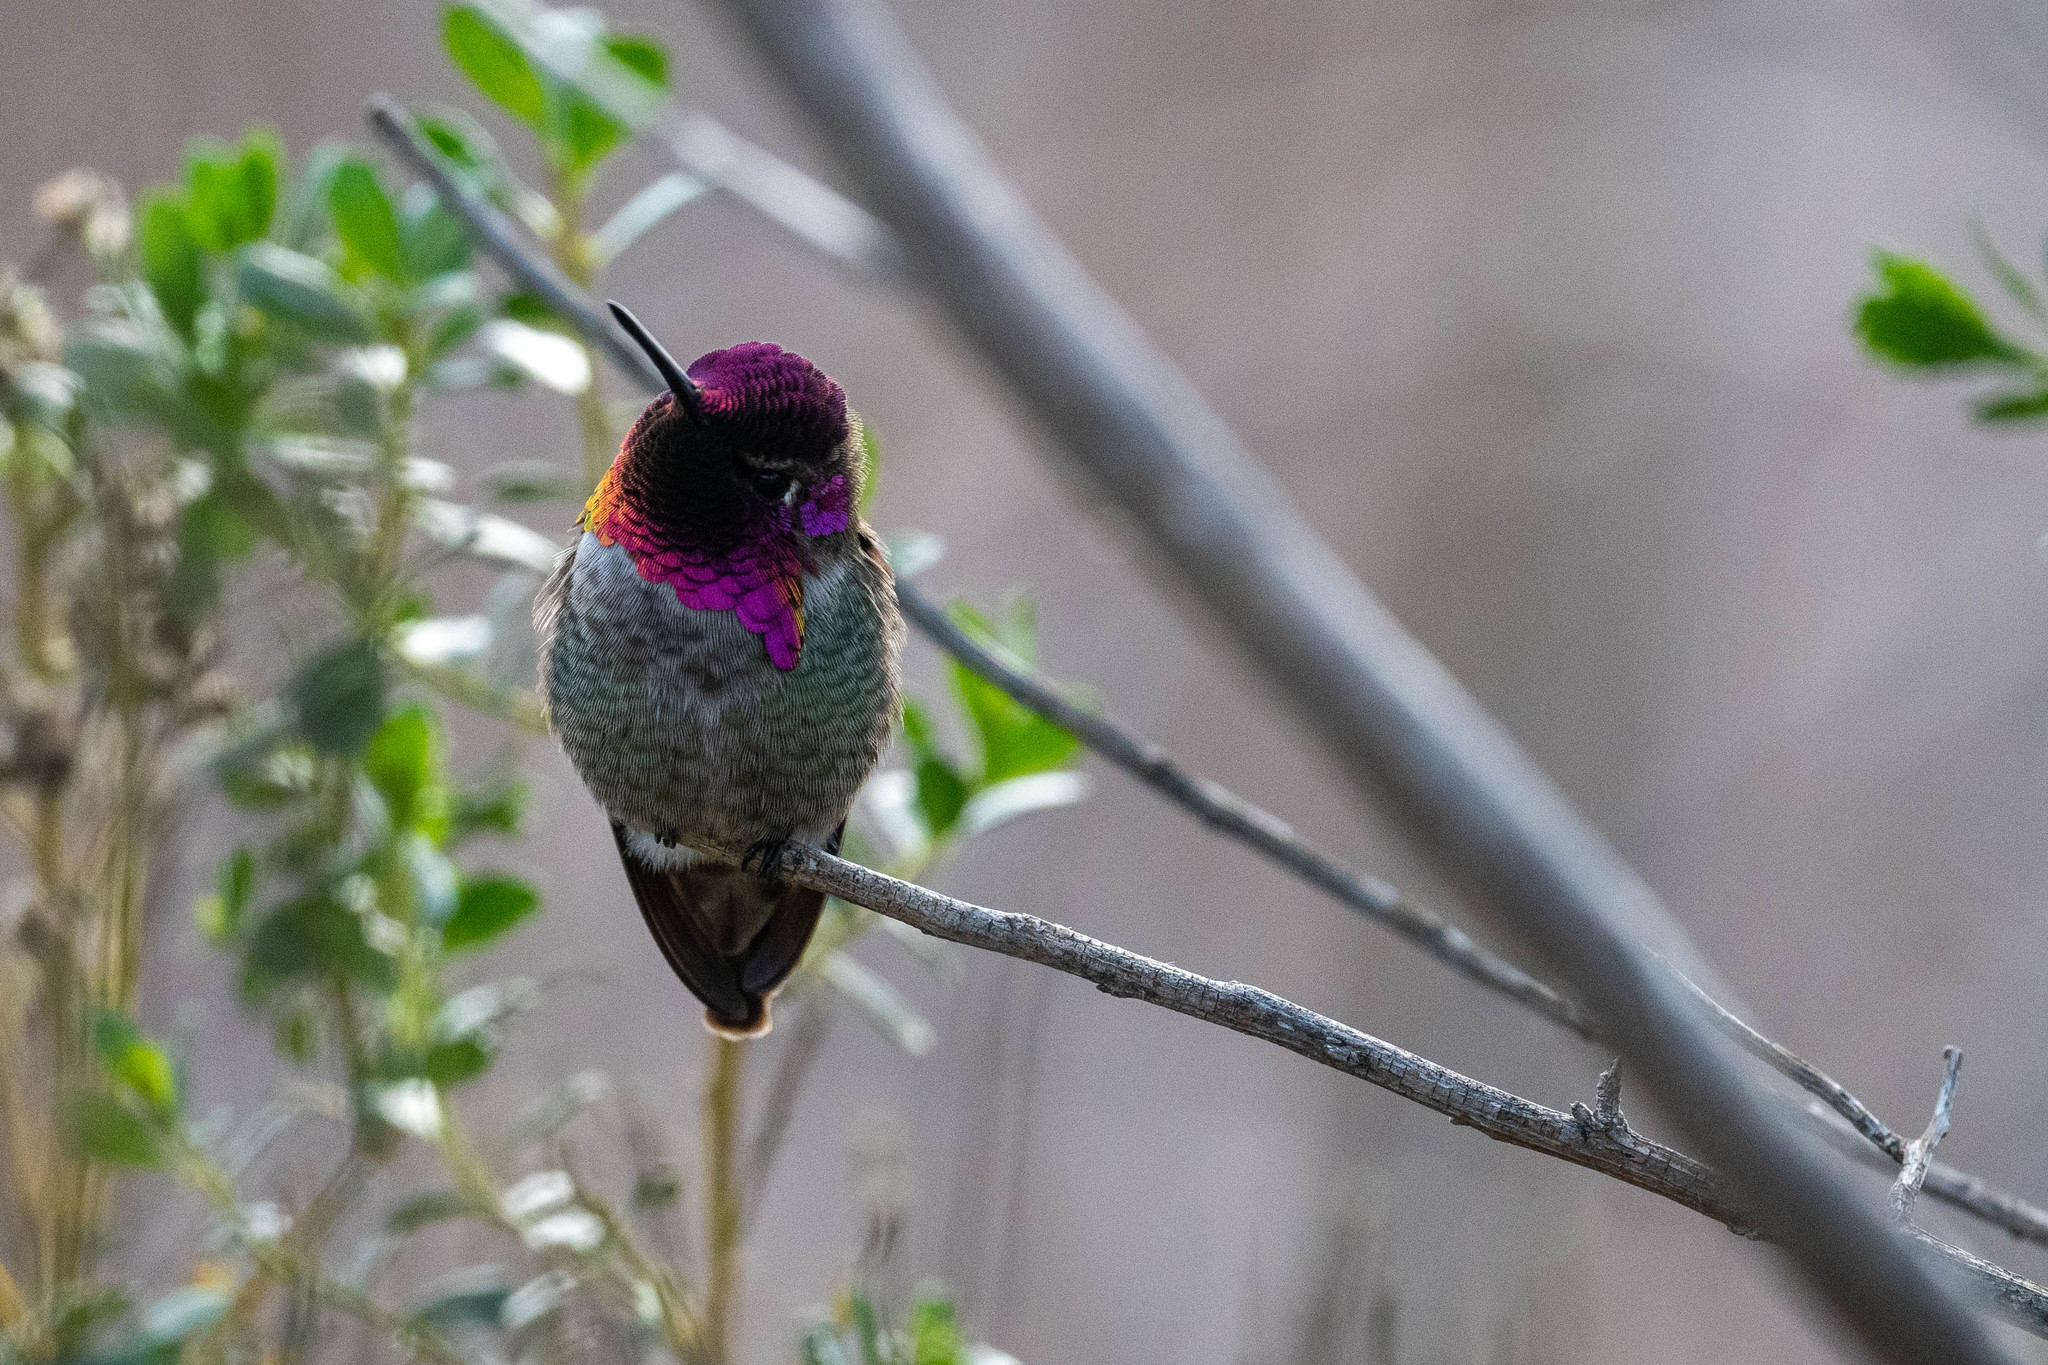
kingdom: Animalia
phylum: Chordata
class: Aves
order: Apodiformes
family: Trochilidae
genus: Calypte
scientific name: Calypte anna
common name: Anna's hummingbird
